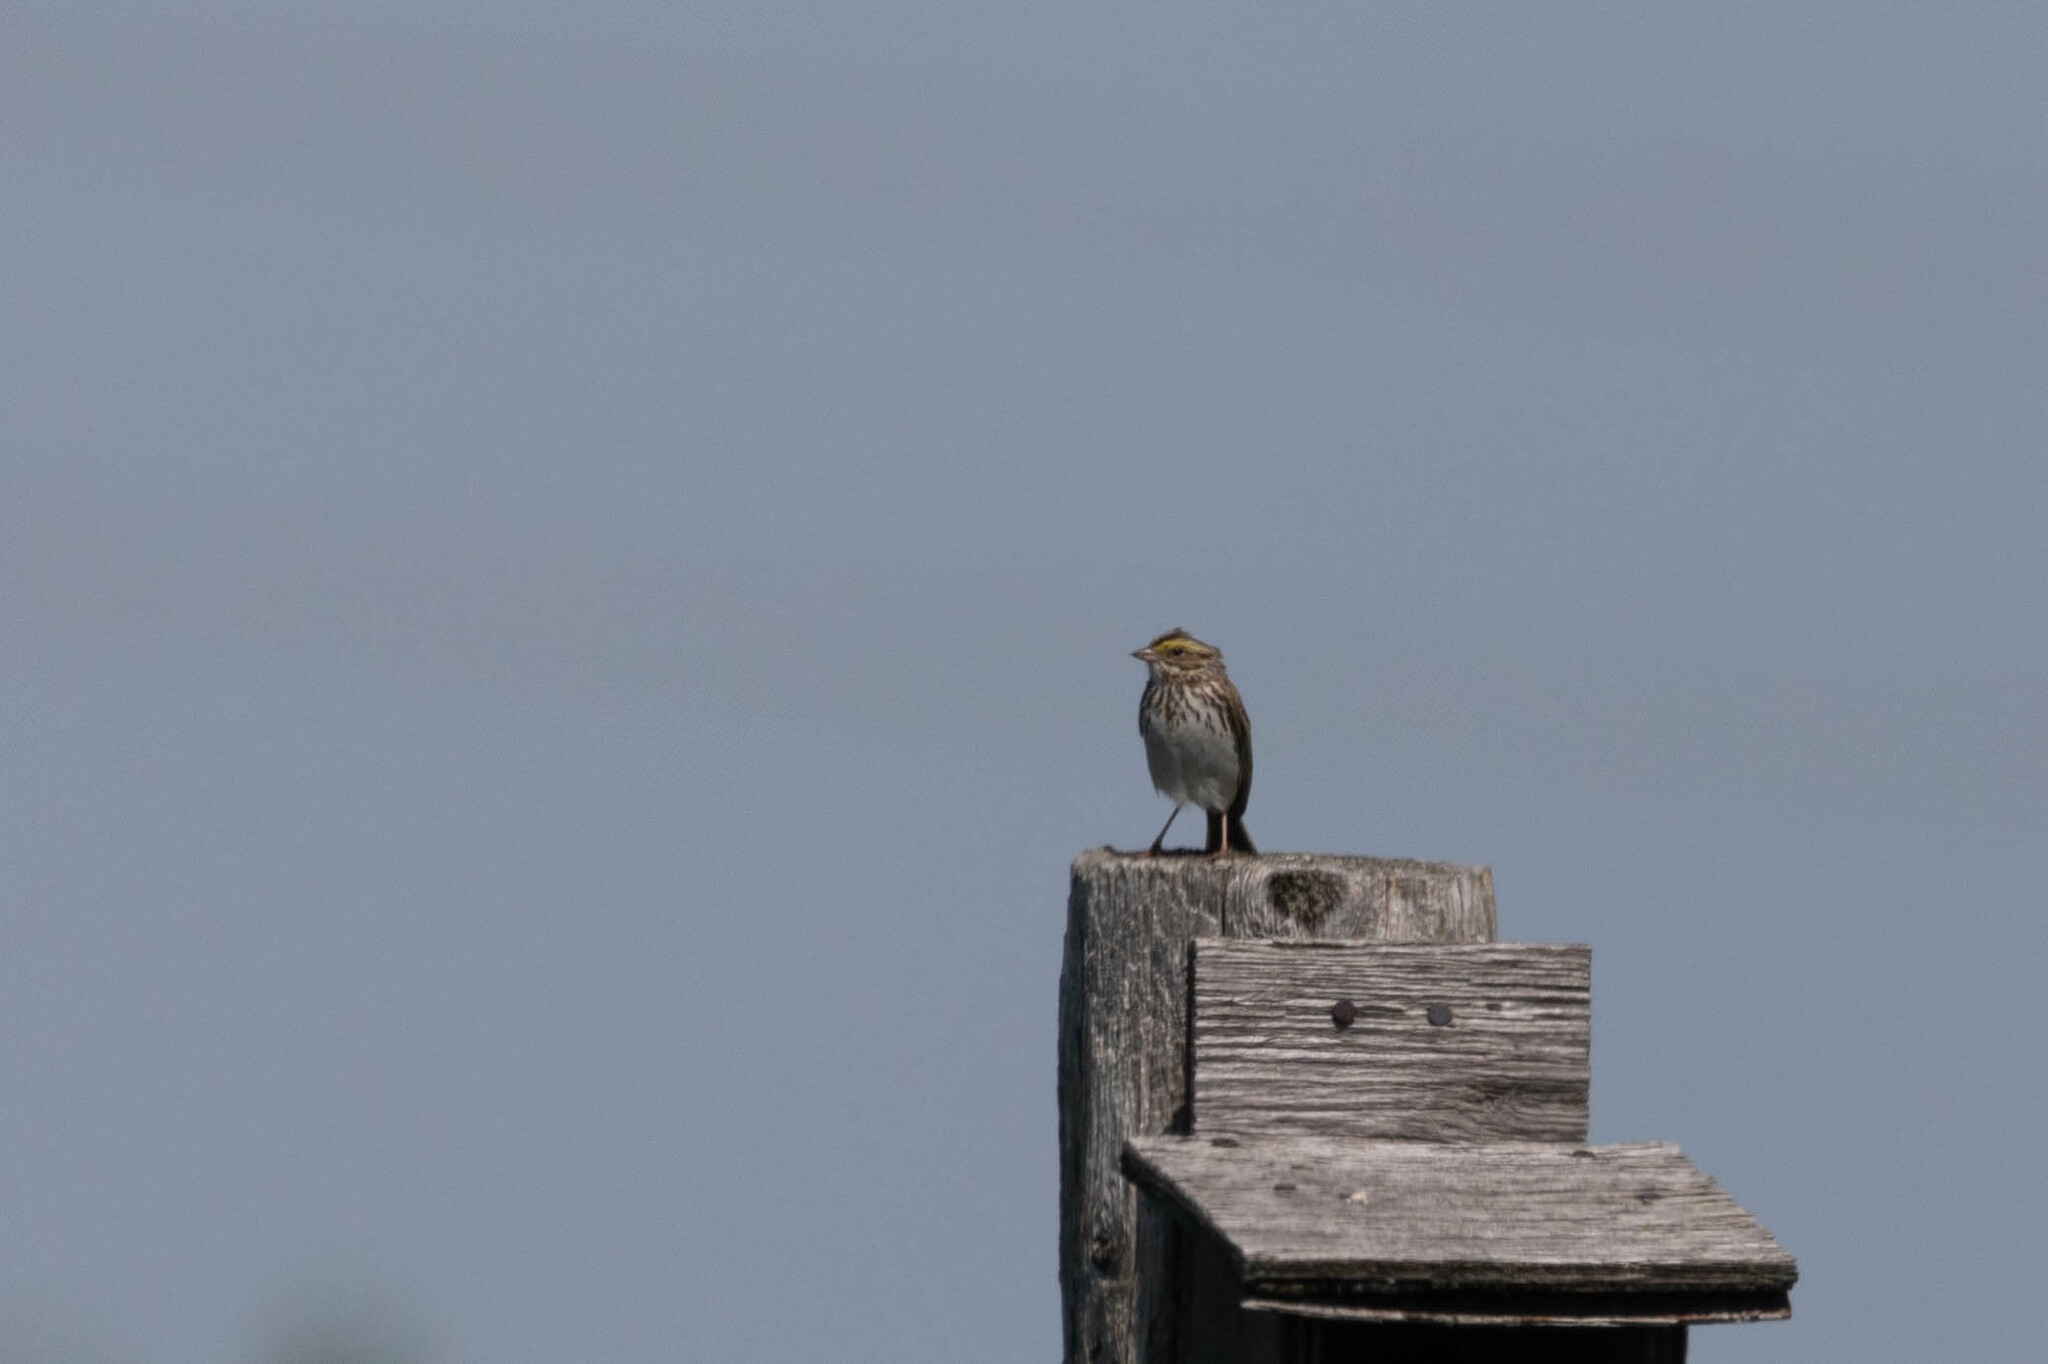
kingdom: Animalia
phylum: Chordata
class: Aves
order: Passeriformes
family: Passerellidae
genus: Passerculus
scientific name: Passerculus sandwichensis
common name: Savannah sparrow
